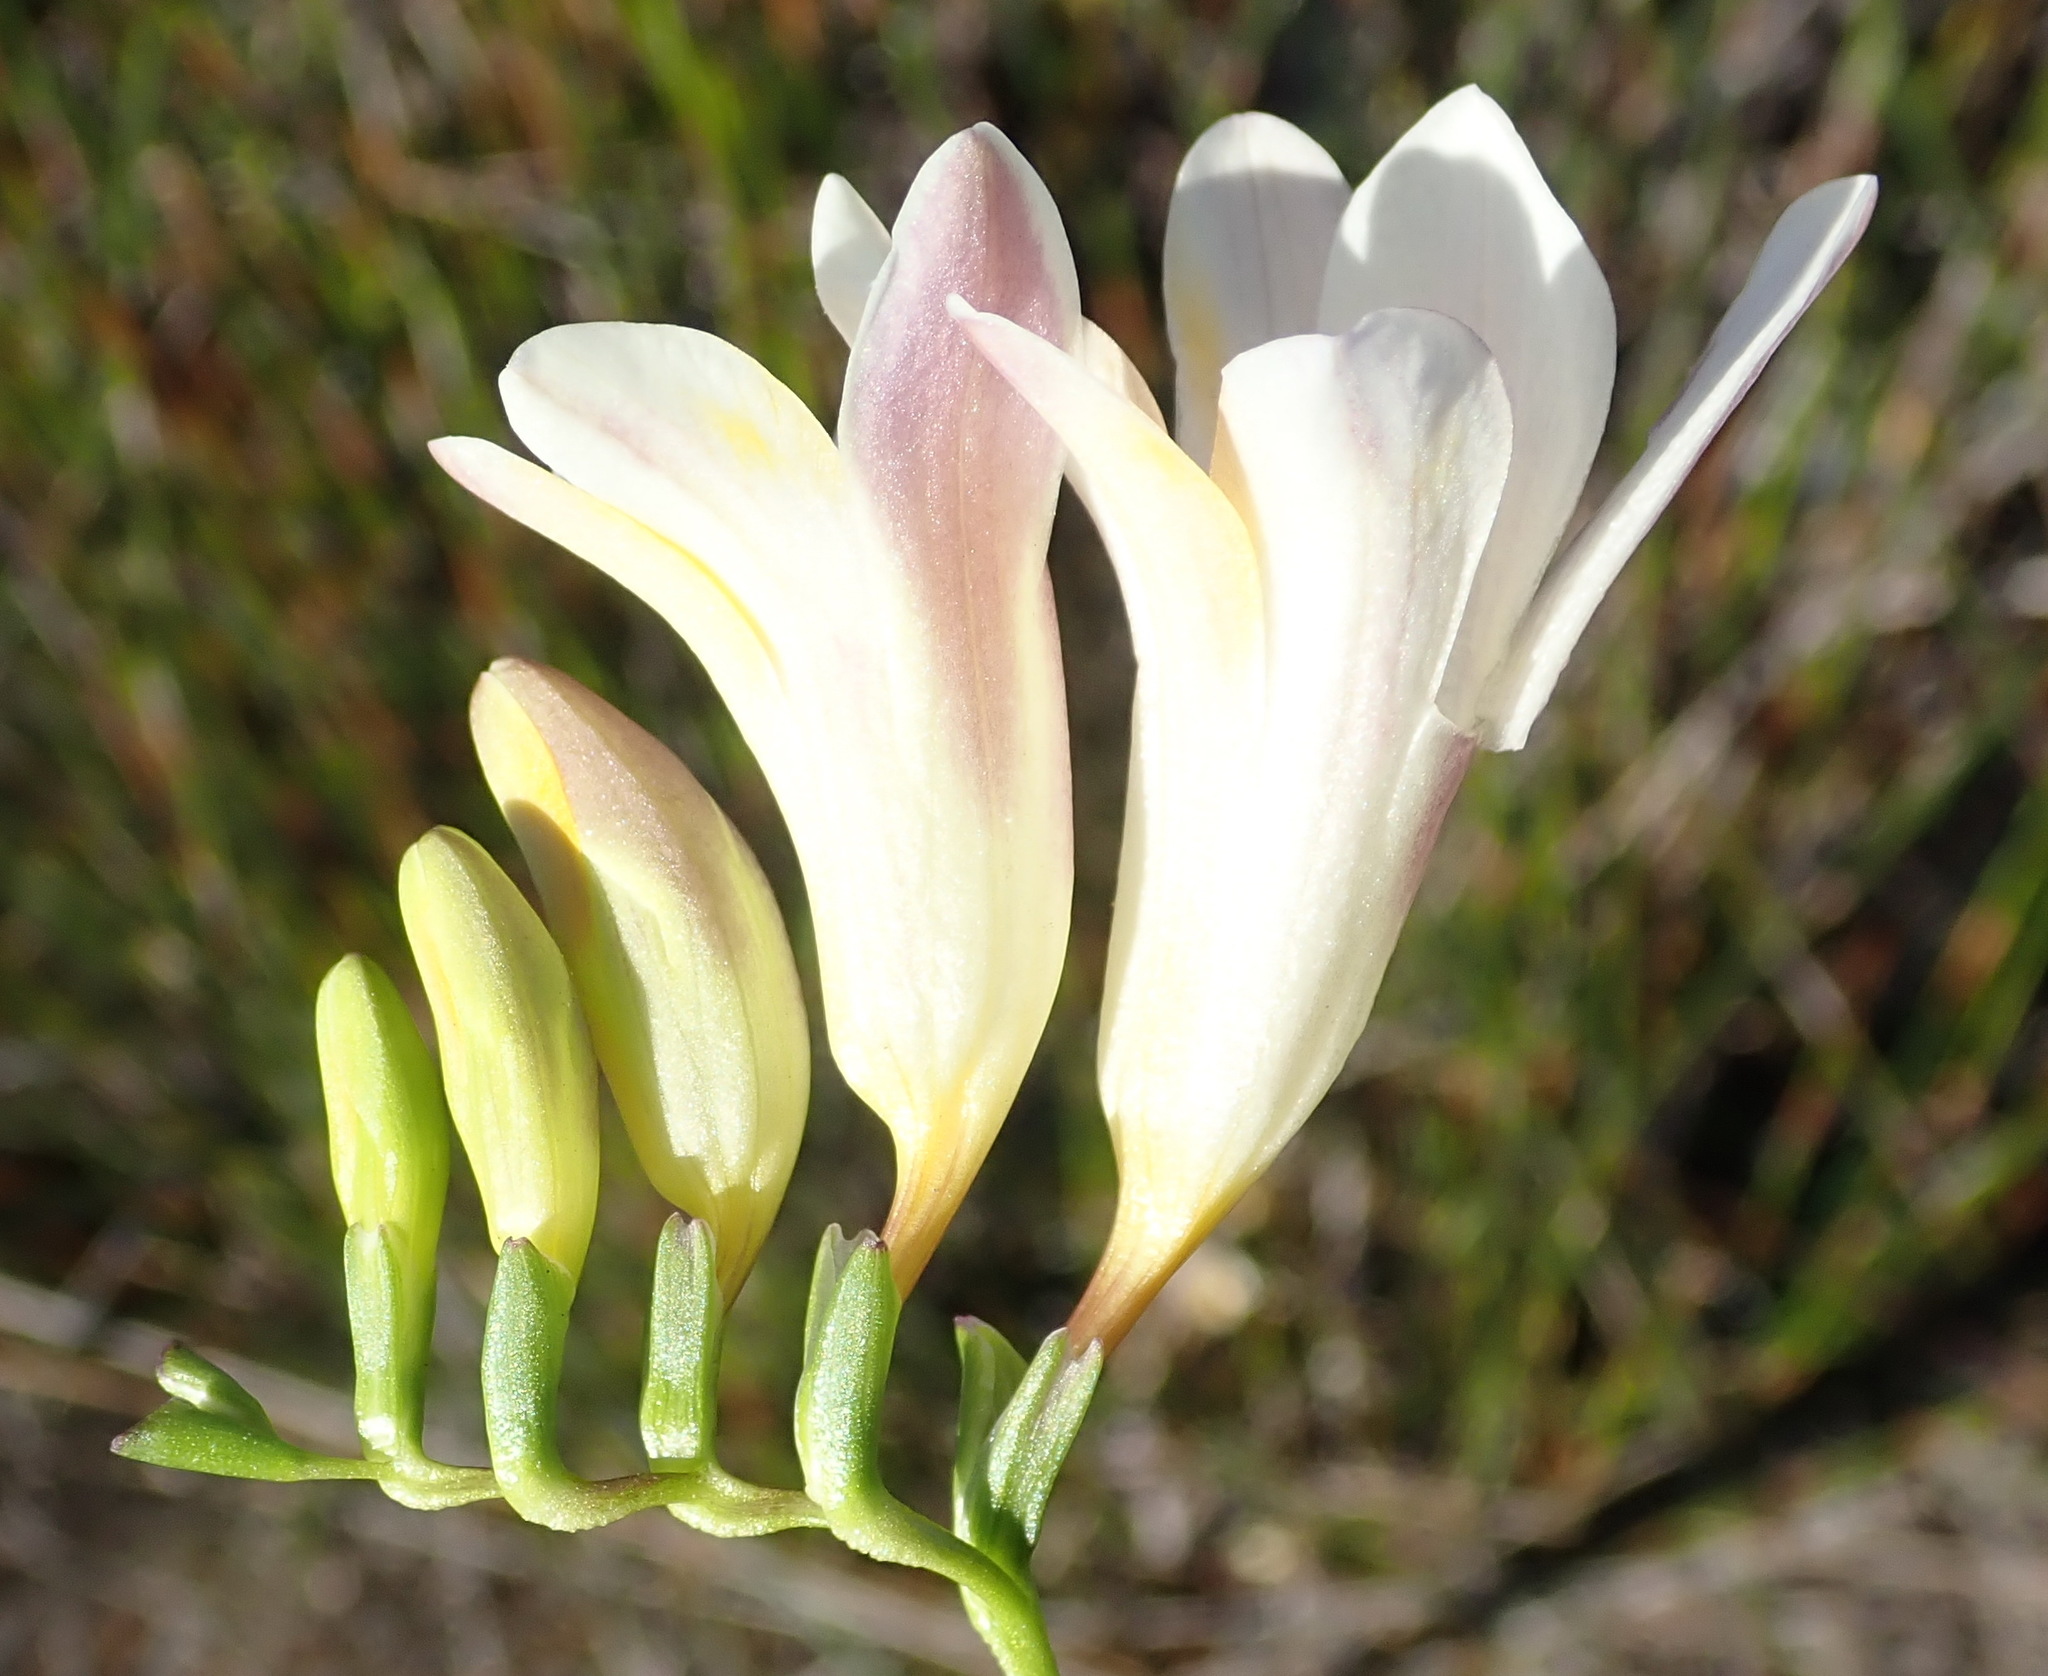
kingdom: Plantae
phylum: Tracheophyta
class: Liliopsida
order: Asparagales
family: Iridaceae
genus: Freesia
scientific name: Freesia caryophyllacea
